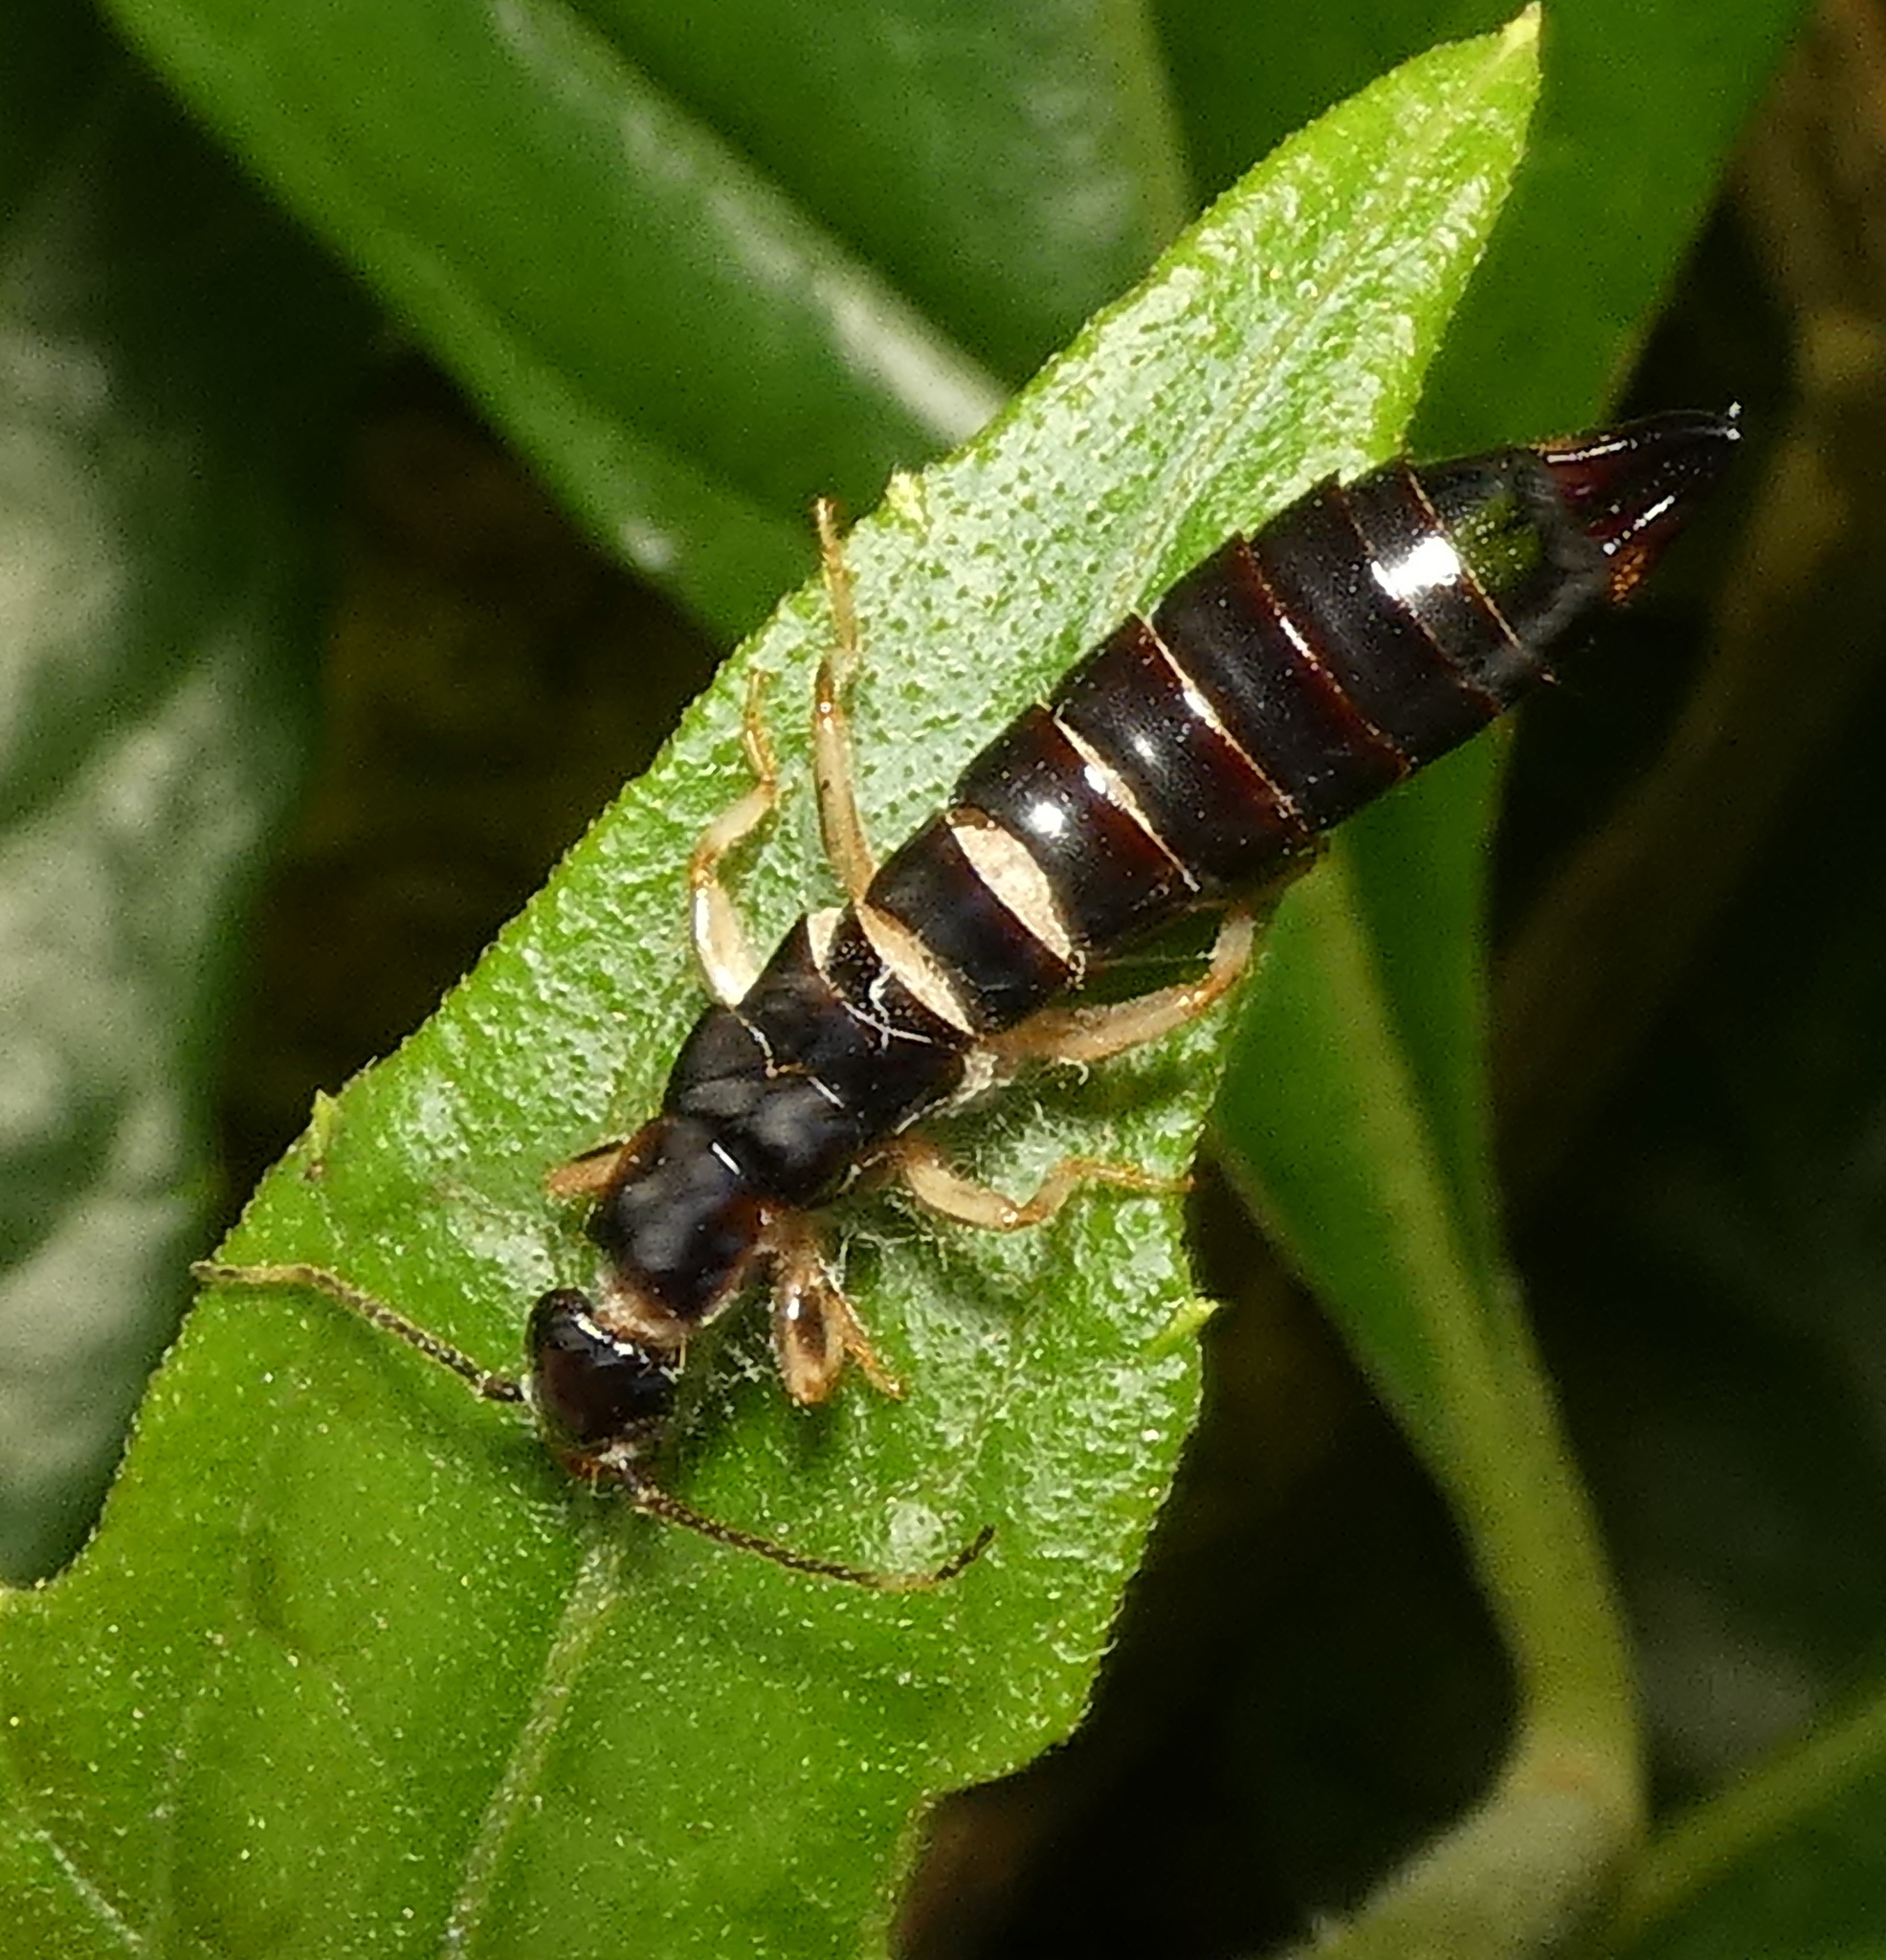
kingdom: Animalia
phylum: Arthropoda
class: Insecta
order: Dermaptera
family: Anisolabididae
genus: Euborellia
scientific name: Euborellia janeirensis
